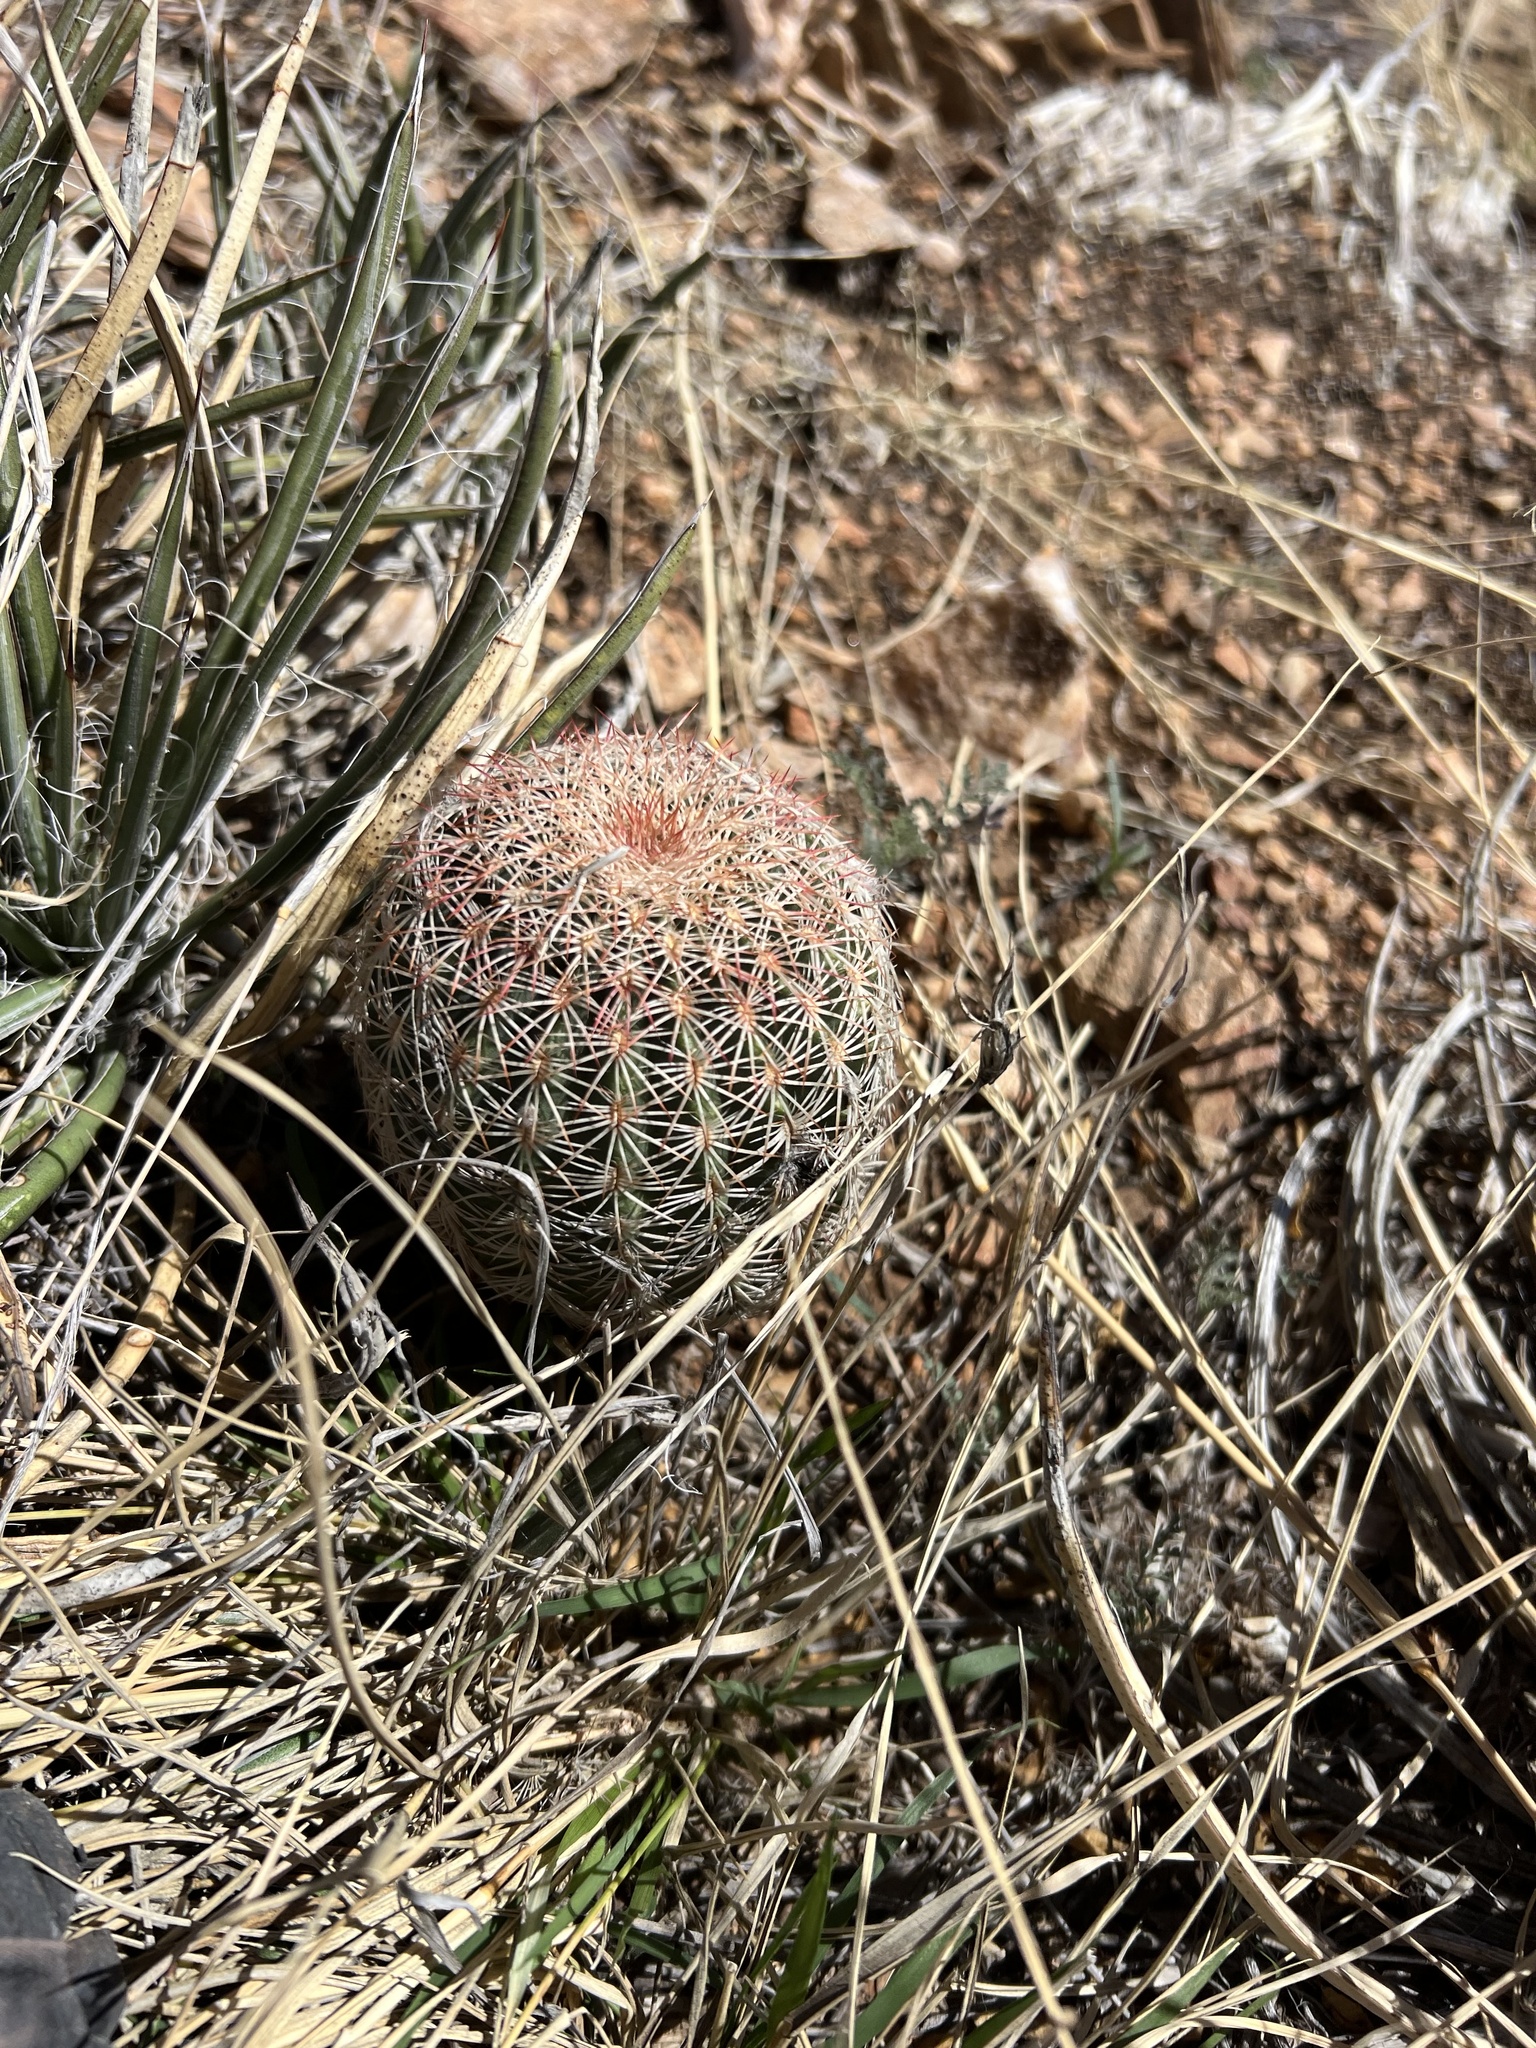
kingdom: Plantae
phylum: Tracheophyta
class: Magnoliopsida
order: Caryophyllales
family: Cactaceae
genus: Echinocereus
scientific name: Echinocereus rigidissimus
